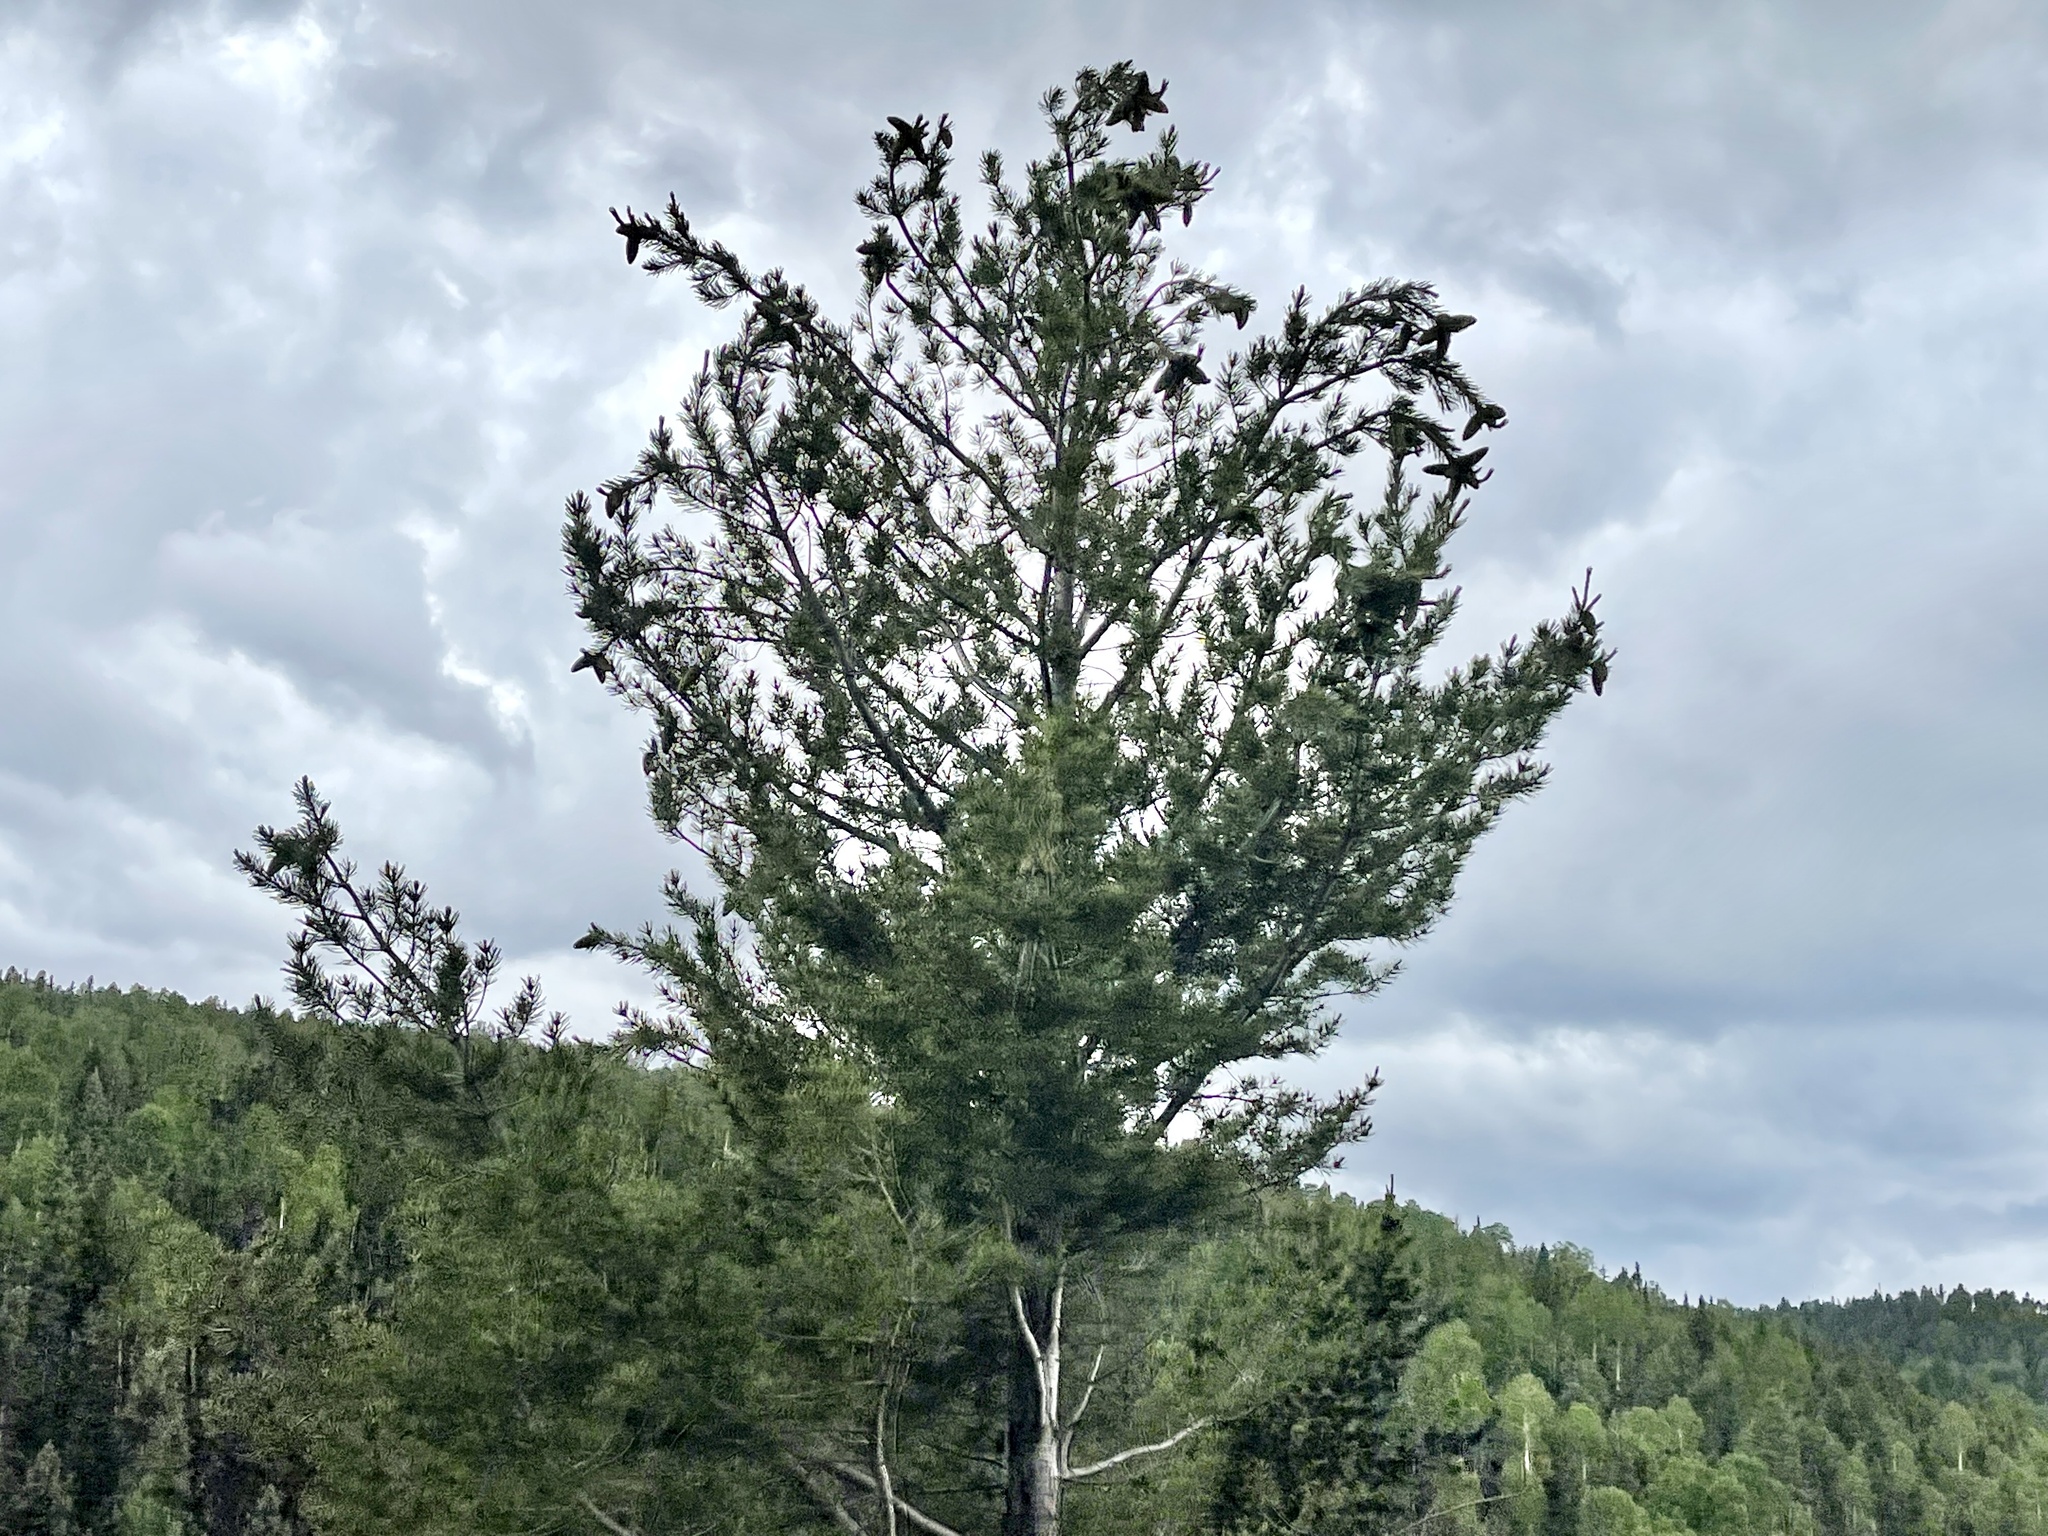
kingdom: Plantae
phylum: Tracheophyta
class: Pinopsida
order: Pinales
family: Pinaceae
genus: Pinus
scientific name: Pinus flexilis
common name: Limber pine
